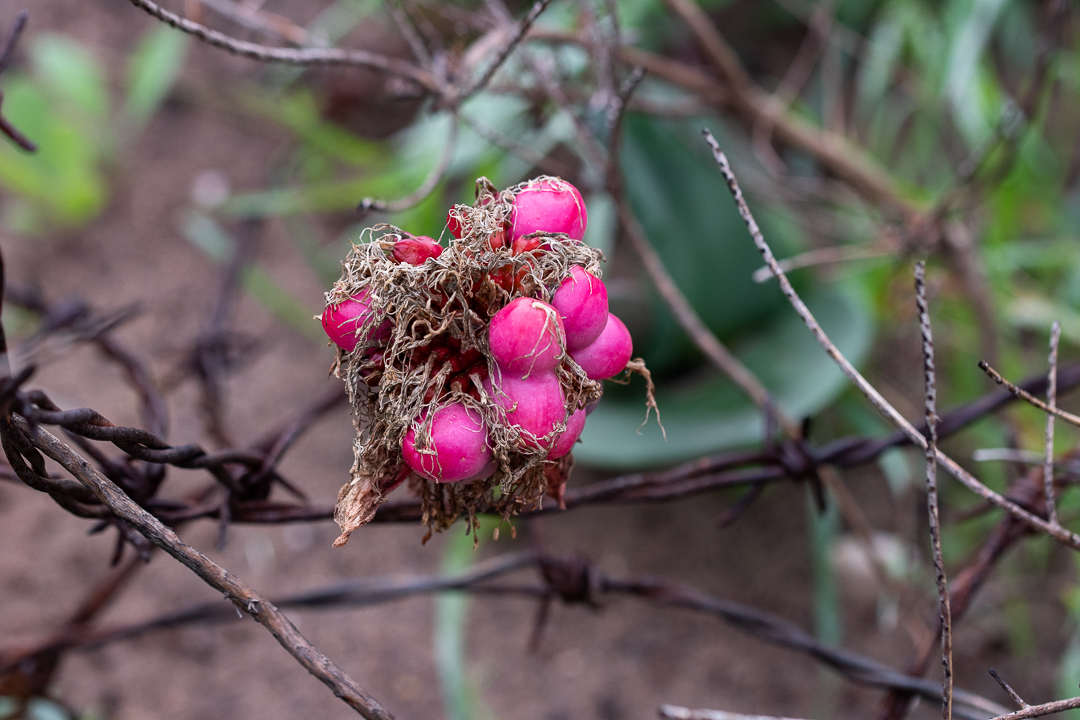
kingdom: Plantae
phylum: Tracheophyta
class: Liliopsida
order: Asparagales
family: Amaryllidaceae
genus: Haemanthus
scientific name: Haemanthus coccineus
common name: Cape-tulip
